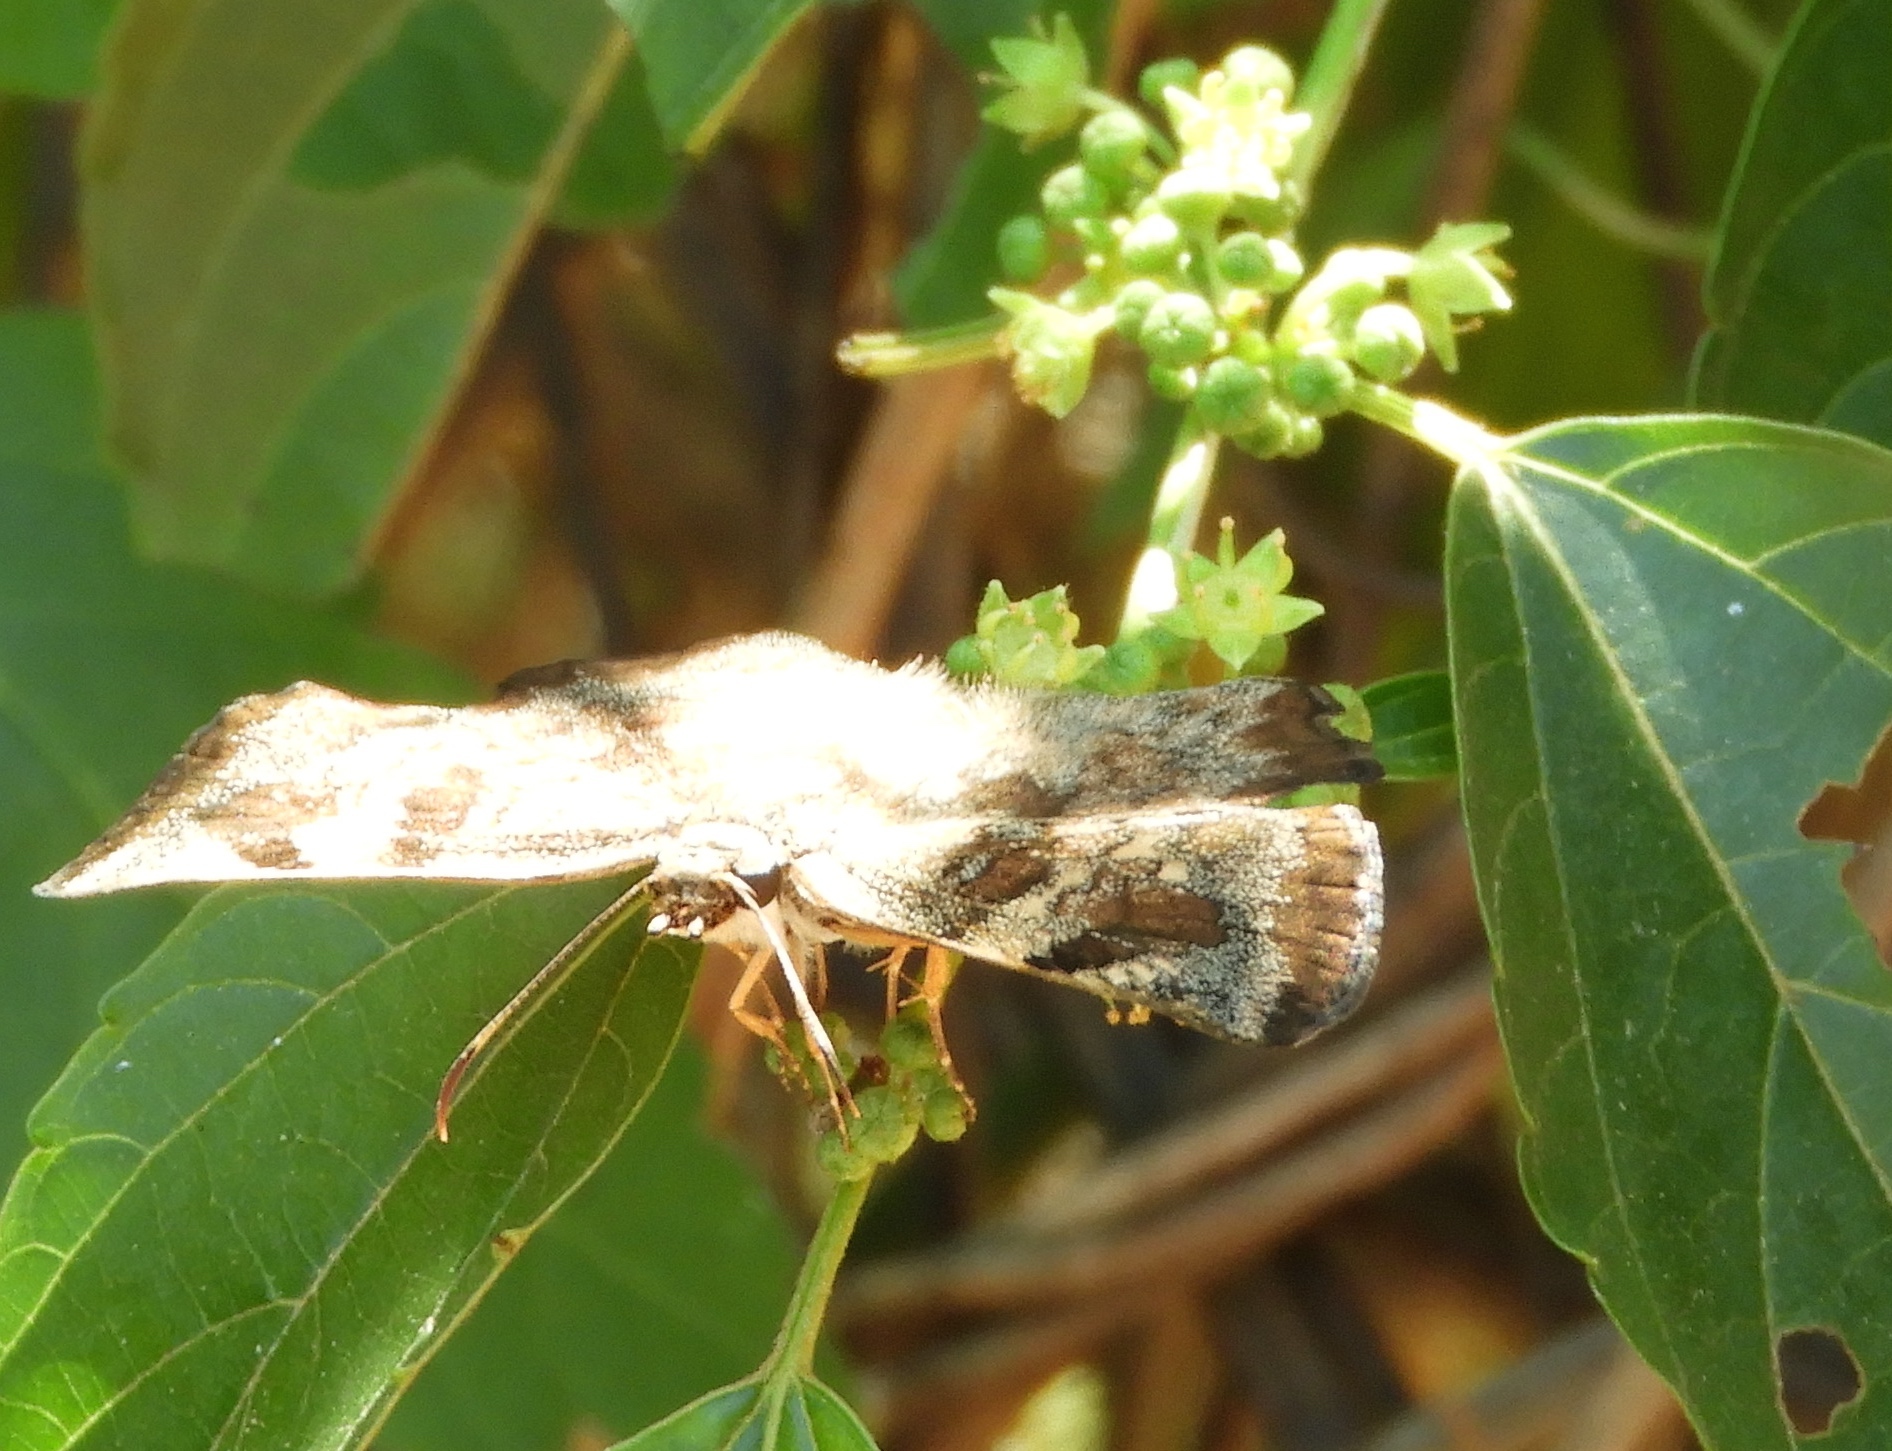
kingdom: Animalia
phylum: Arthropoda
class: Insecta
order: Lepidoptera
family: Hesperiidae
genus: Antigonus
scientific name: Antigonus erosus
